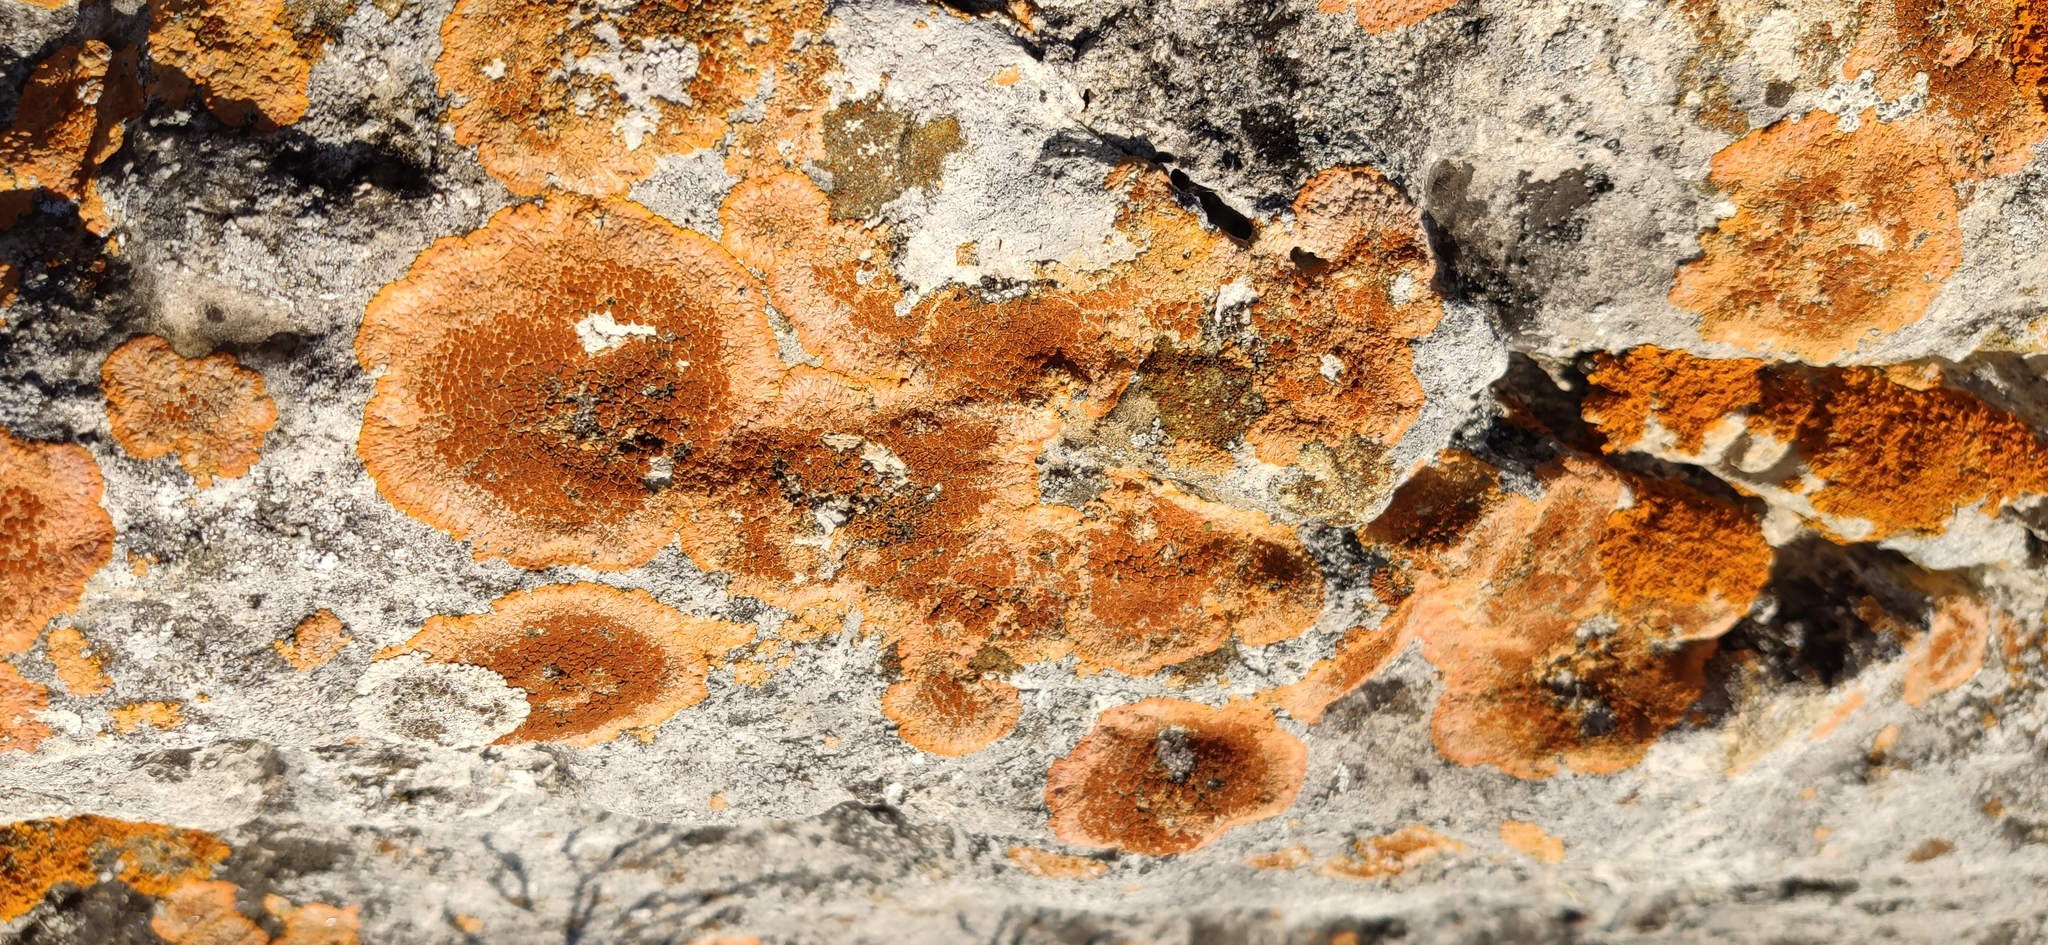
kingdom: Fungi
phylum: Ascomycota
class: Lecanoromycetes
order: Teloschistales
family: Teloschistaceae
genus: Variospora
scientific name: Variospora aurantia
